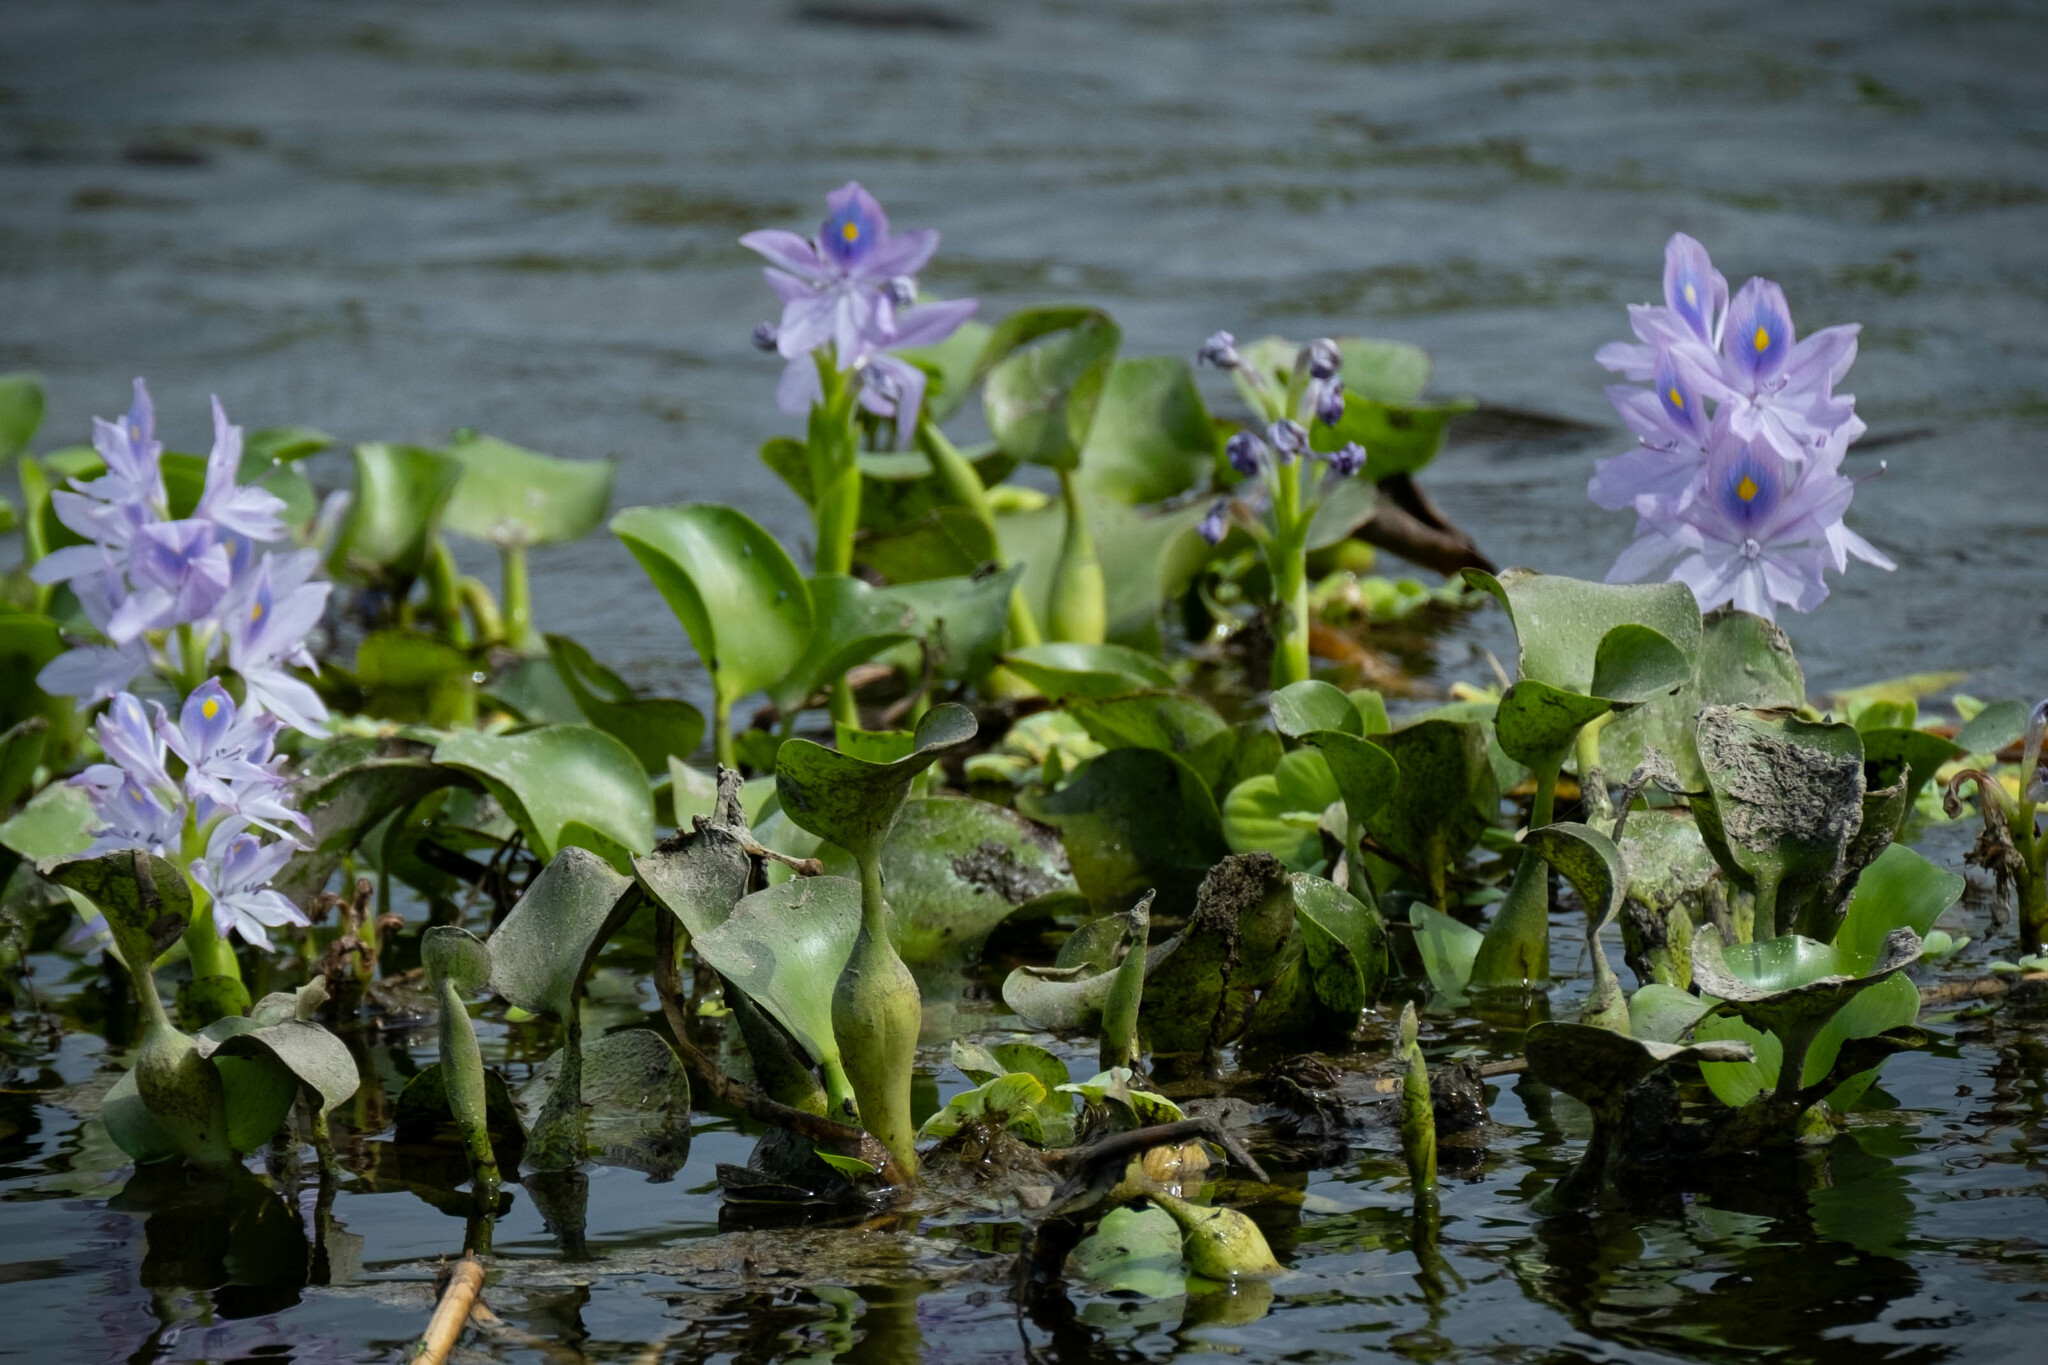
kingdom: Plantae
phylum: Tracheophyta
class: Liliopsida
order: Commelinales
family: Pontederiaceae
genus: Pontederia
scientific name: Pontederia crassipes
